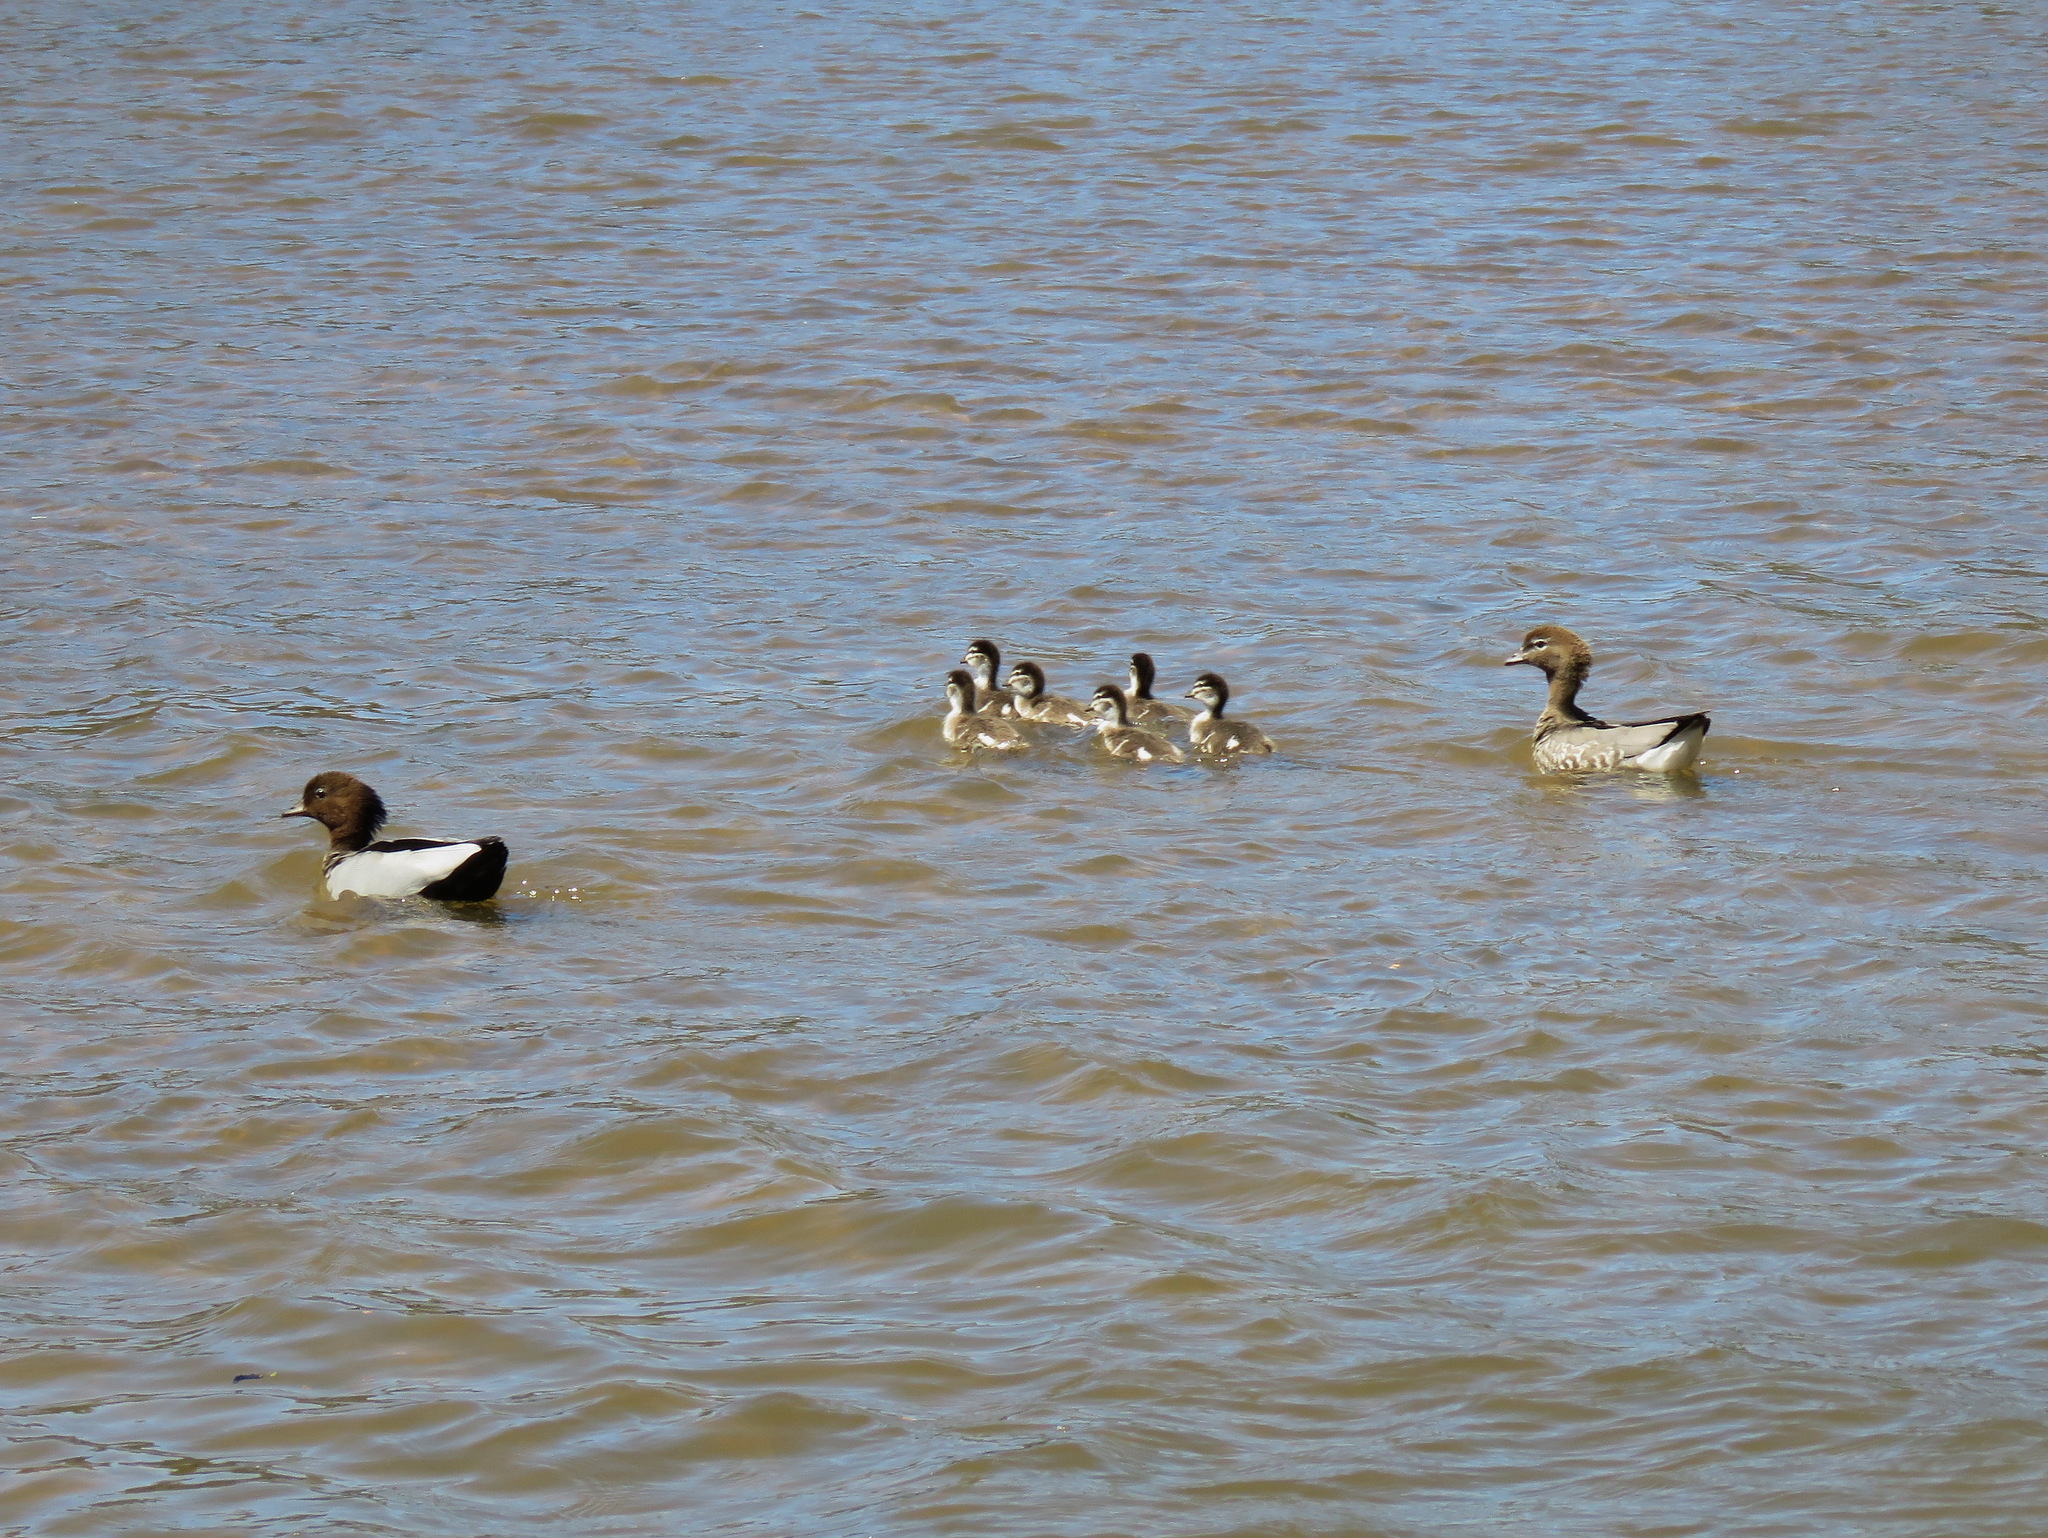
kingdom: Animalia
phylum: Chordata
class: Aves
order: Anseriformes
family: Anatidae
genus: Chenonetta
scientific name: Chenonetta jubata
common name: Maned duck
